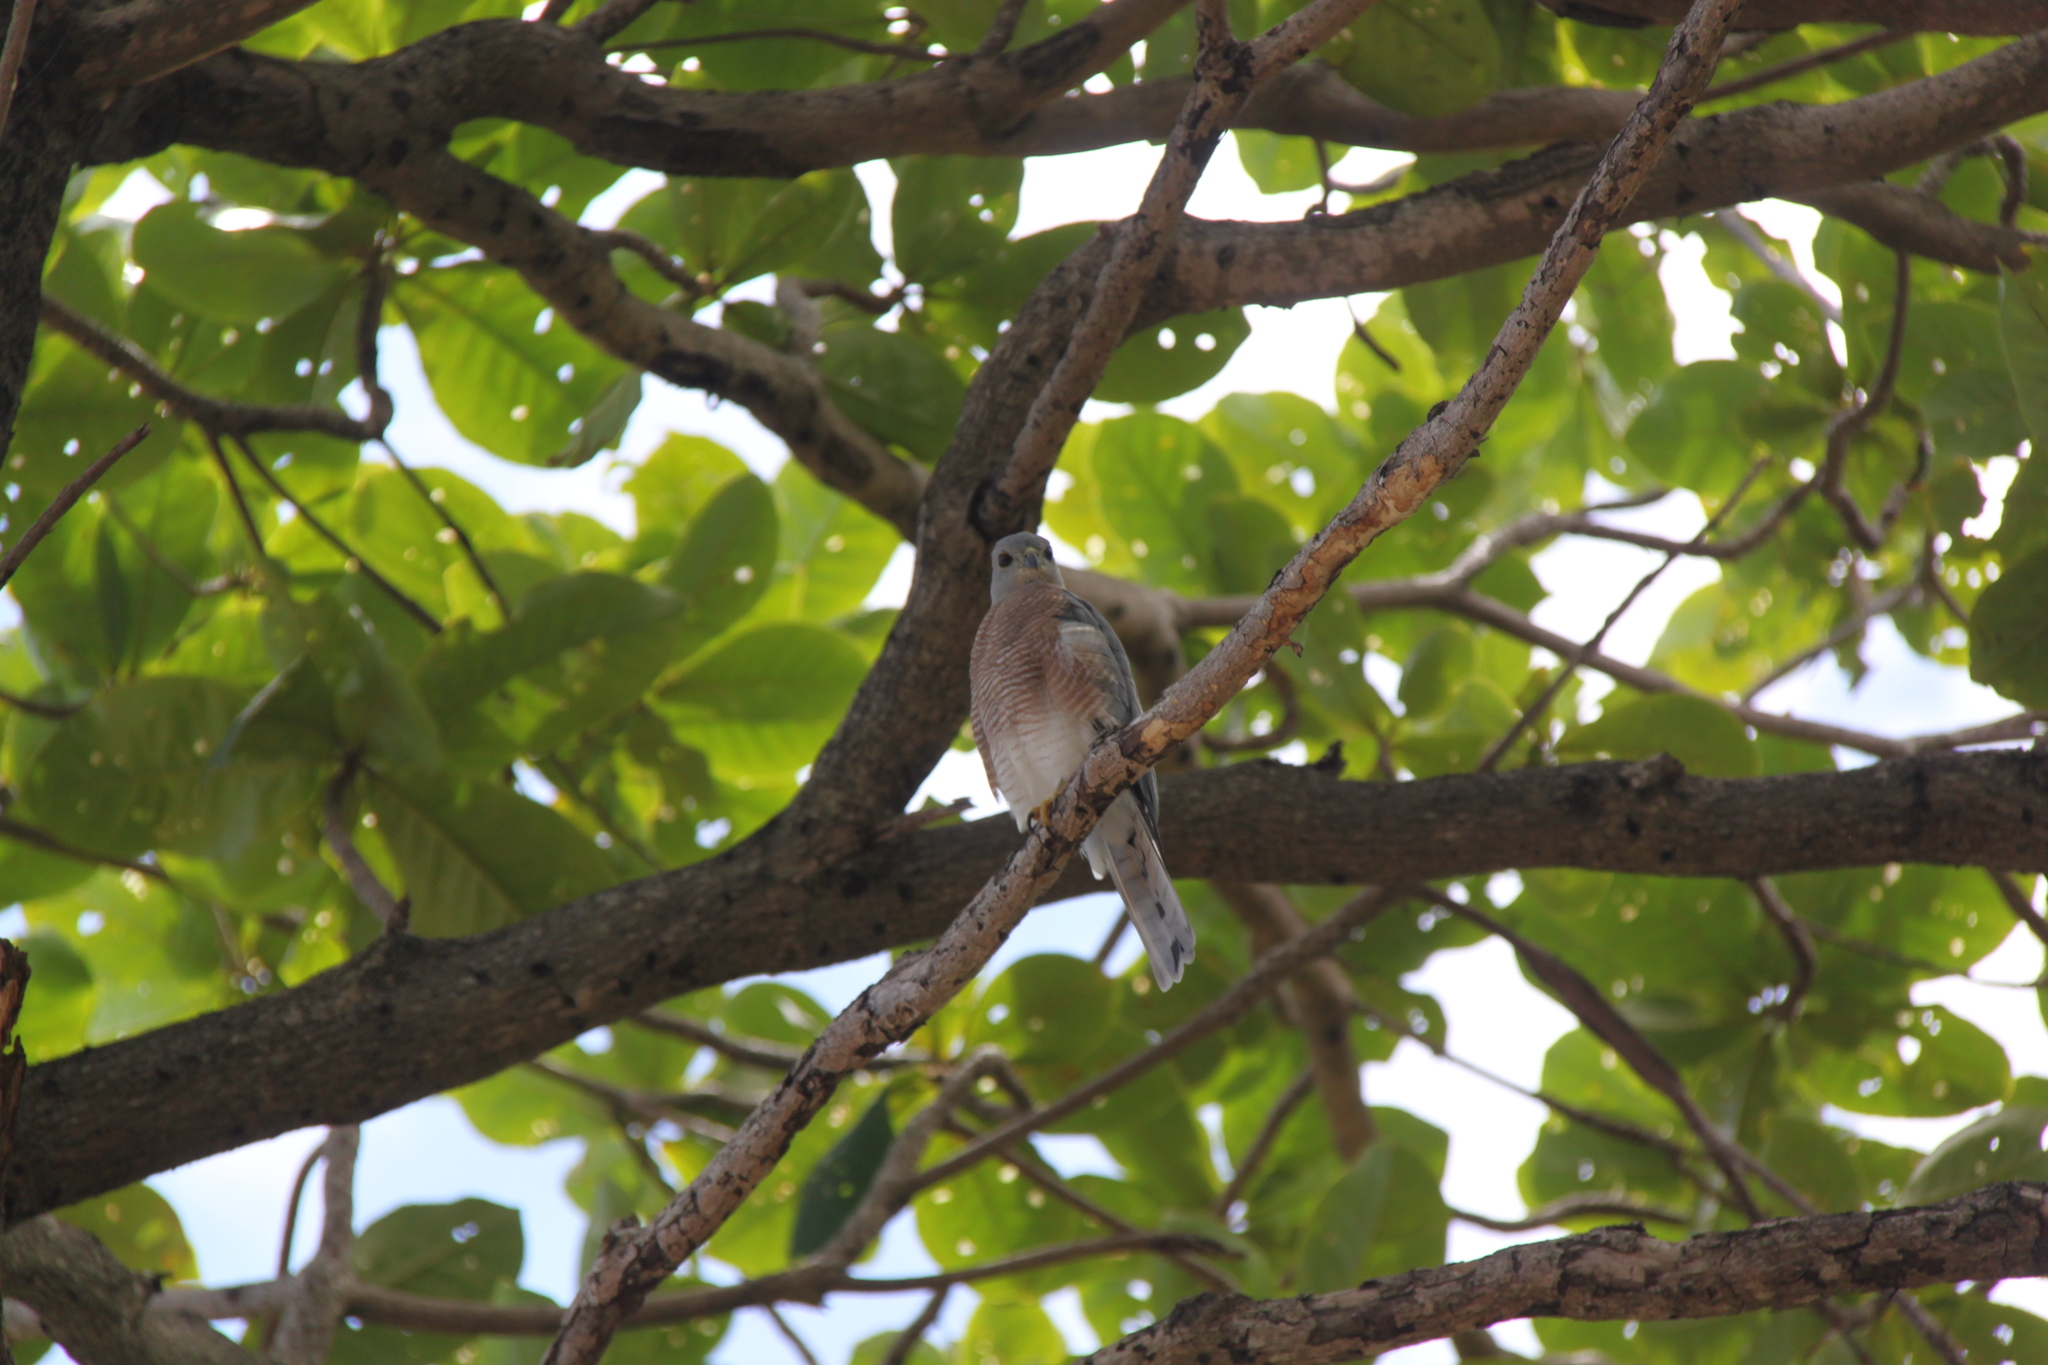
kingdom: Animalia
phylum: Chordata
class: Aves
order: Accipitriformes
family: Accipitridae
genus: Accipiter
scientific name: Accipiter badius
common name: Shikra
